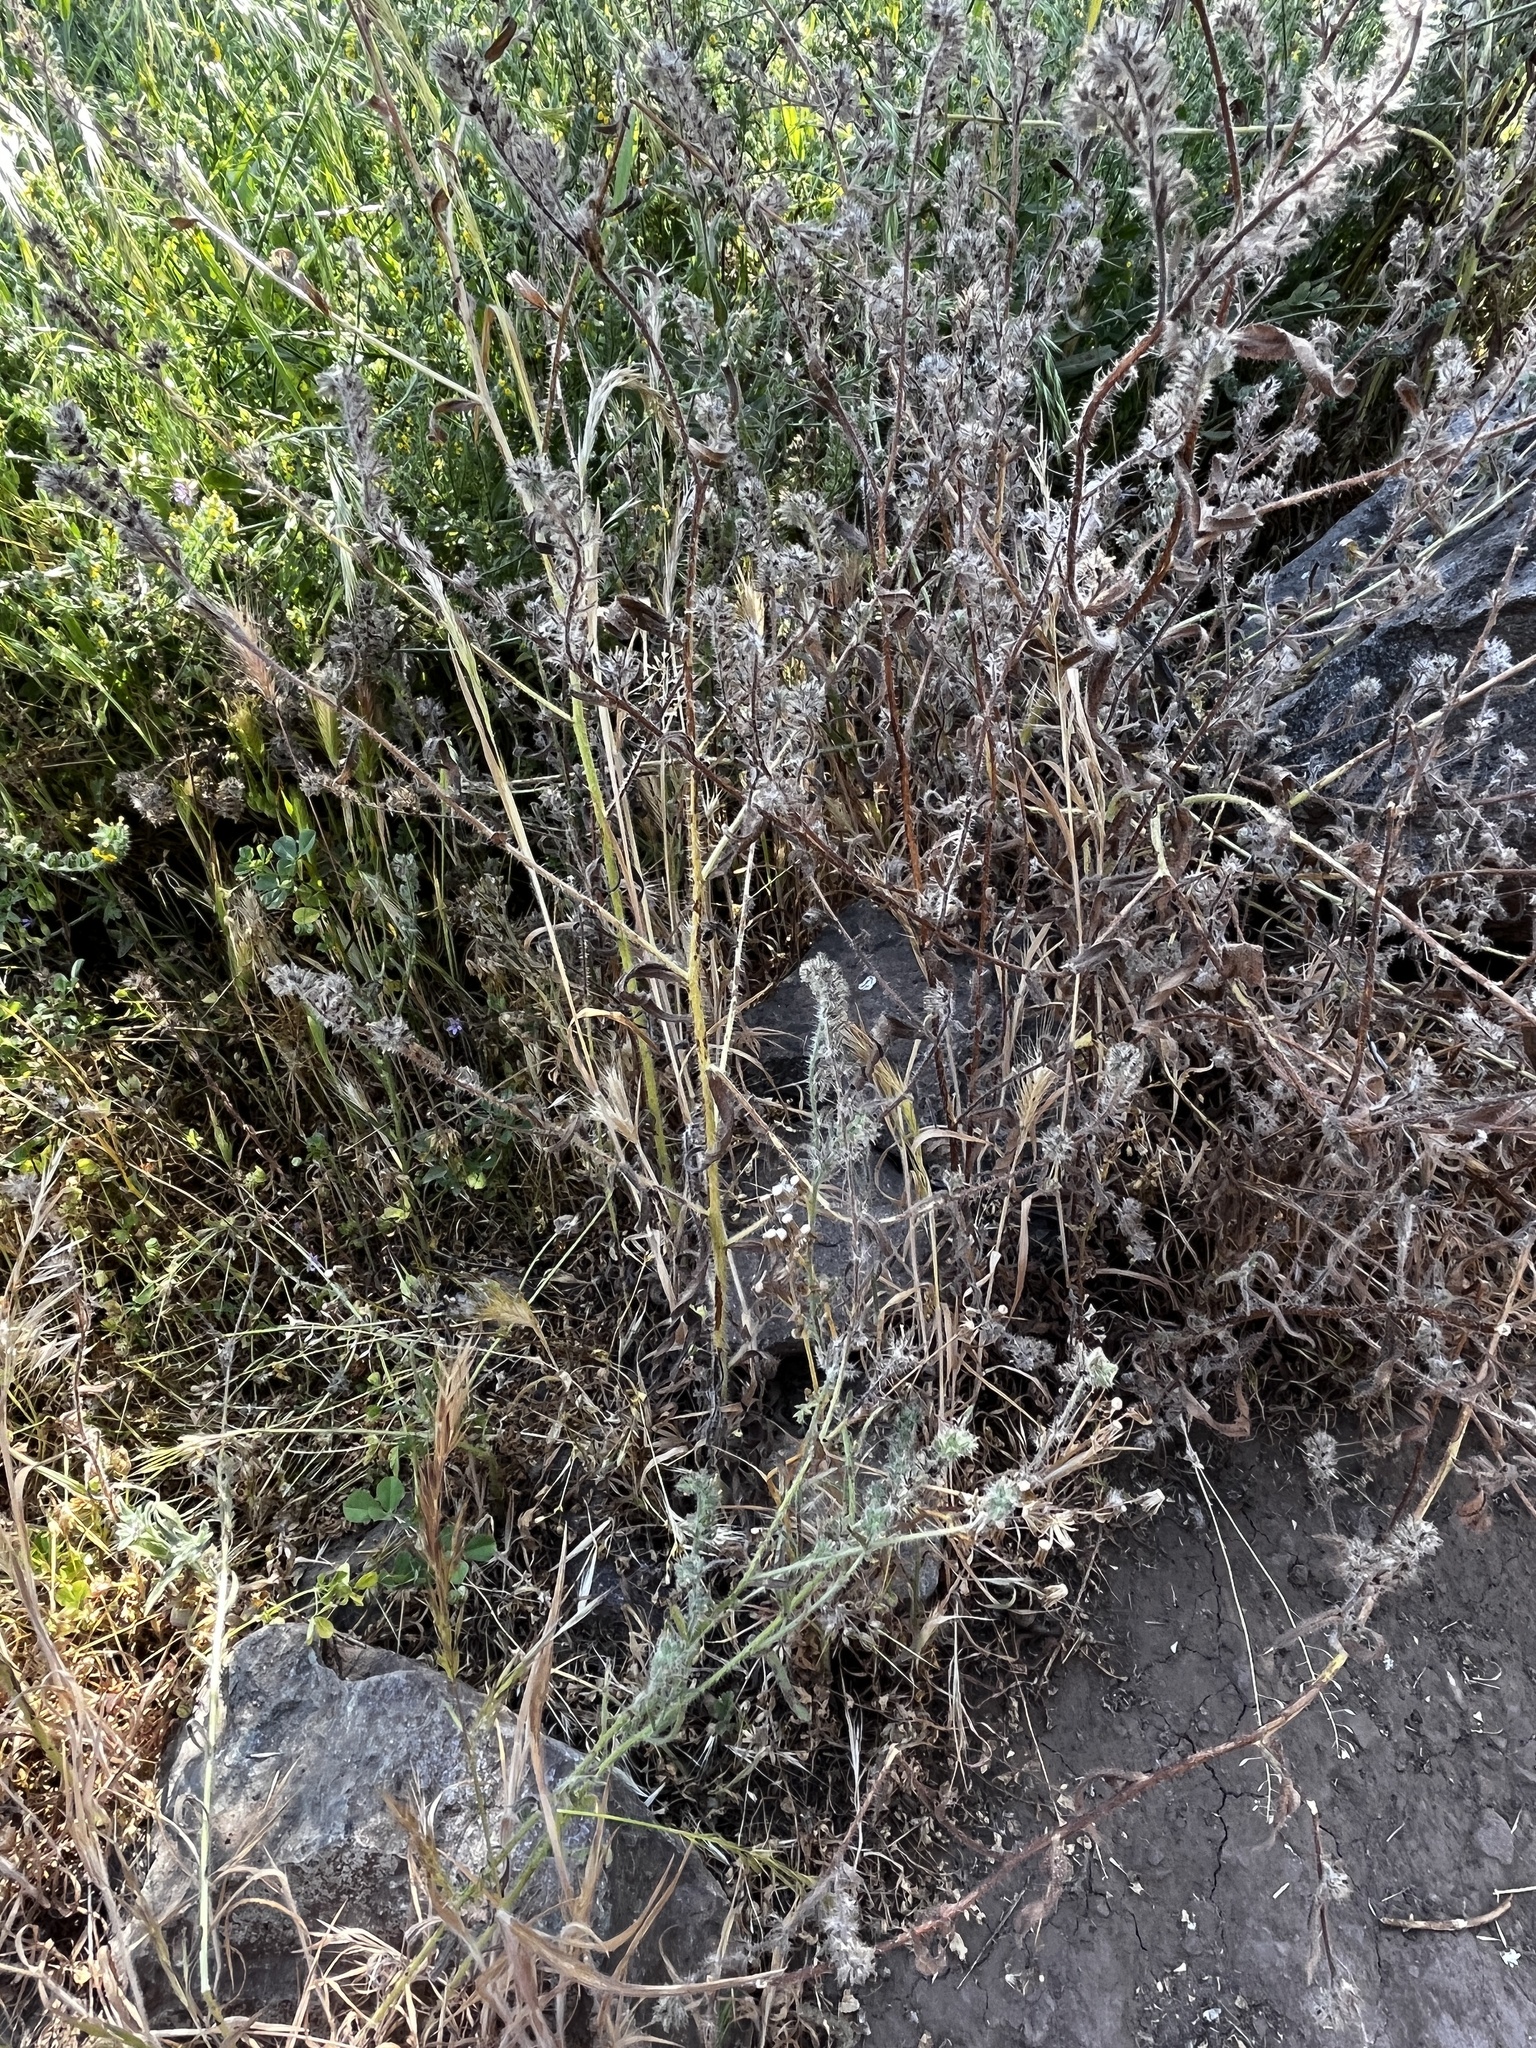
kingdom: Plantae
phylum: Tracheophyta
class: Magnoliopsida
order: Boraginales
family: Boraginaceae
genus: Amsinckia
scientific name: Amsinckia calycina
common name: Hairy fiddleneck
